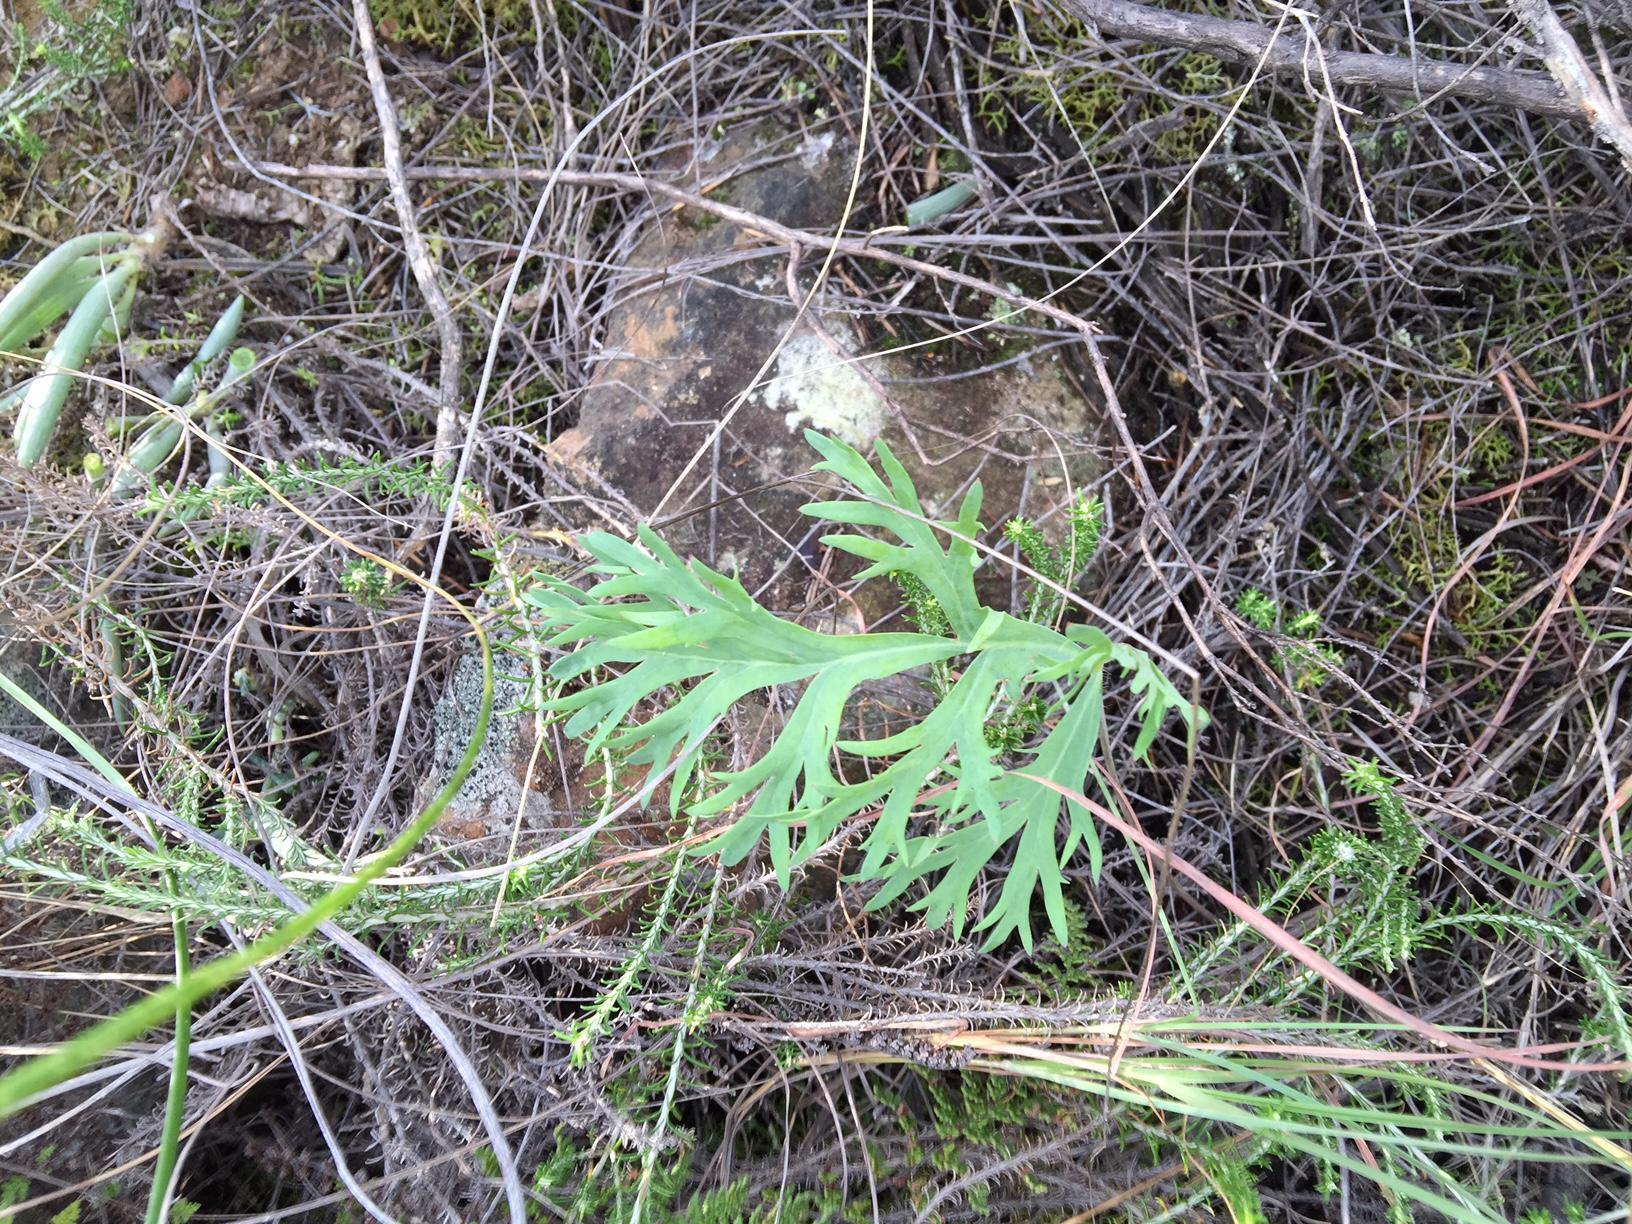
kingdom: Plantae
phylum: Tracheophyta
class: Magnoliopsida
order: Geraniales
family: Geraniaceae
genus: Pelargonium
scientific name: Pelargonium pillansii
